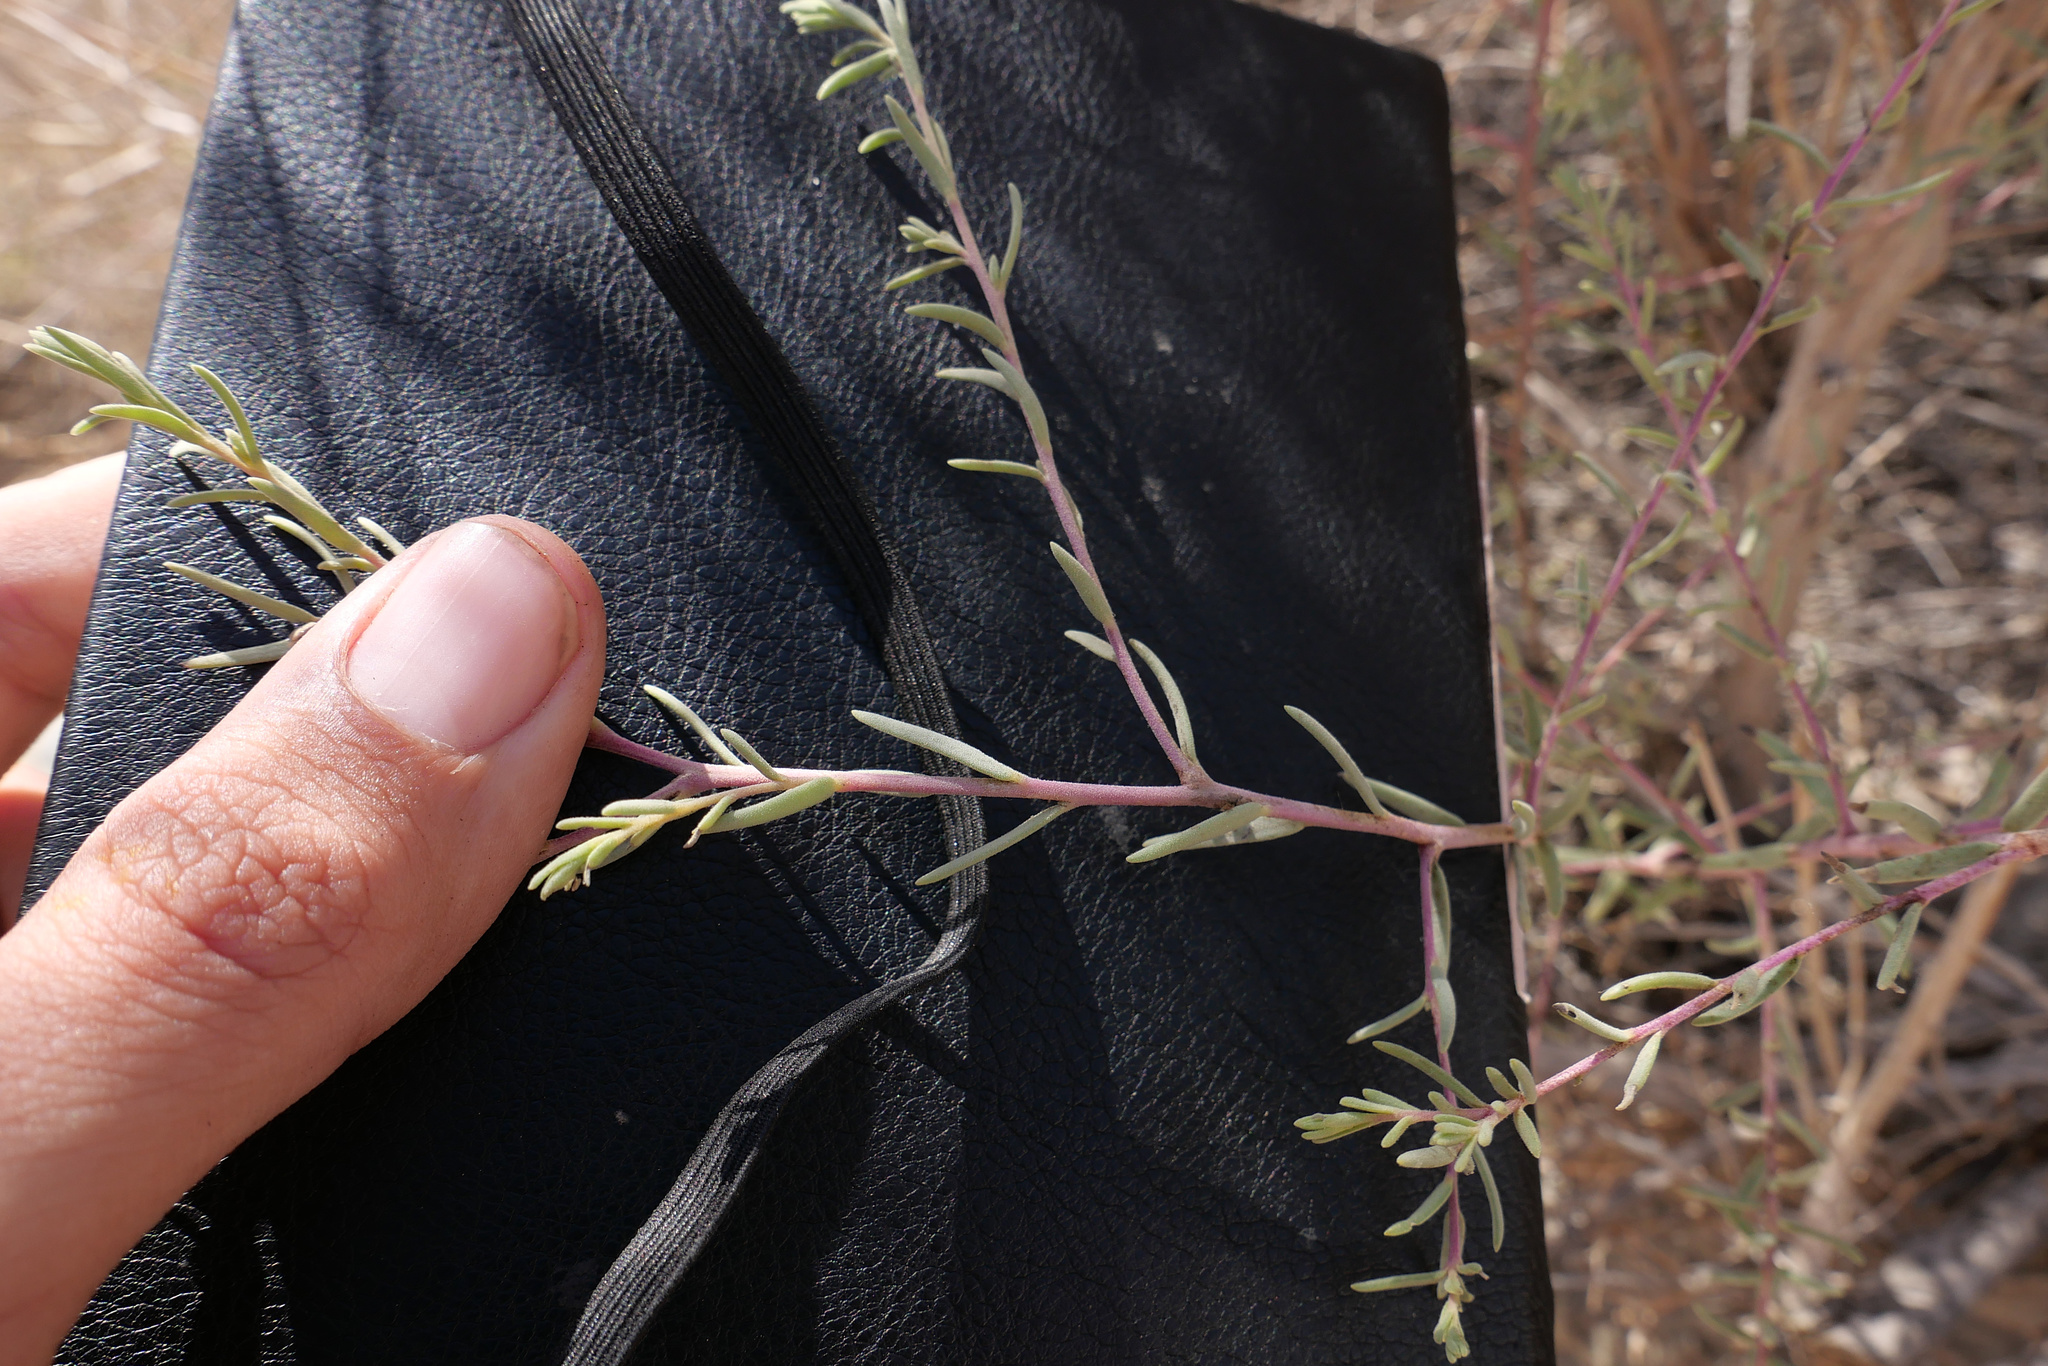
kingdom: Plantae
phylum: Tracheophyta
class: Magnoliopsida
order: Caryophyllales
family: Amaranthaceae
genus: Suaeda
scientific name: Suaeda nigra
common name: Bush seepweed
